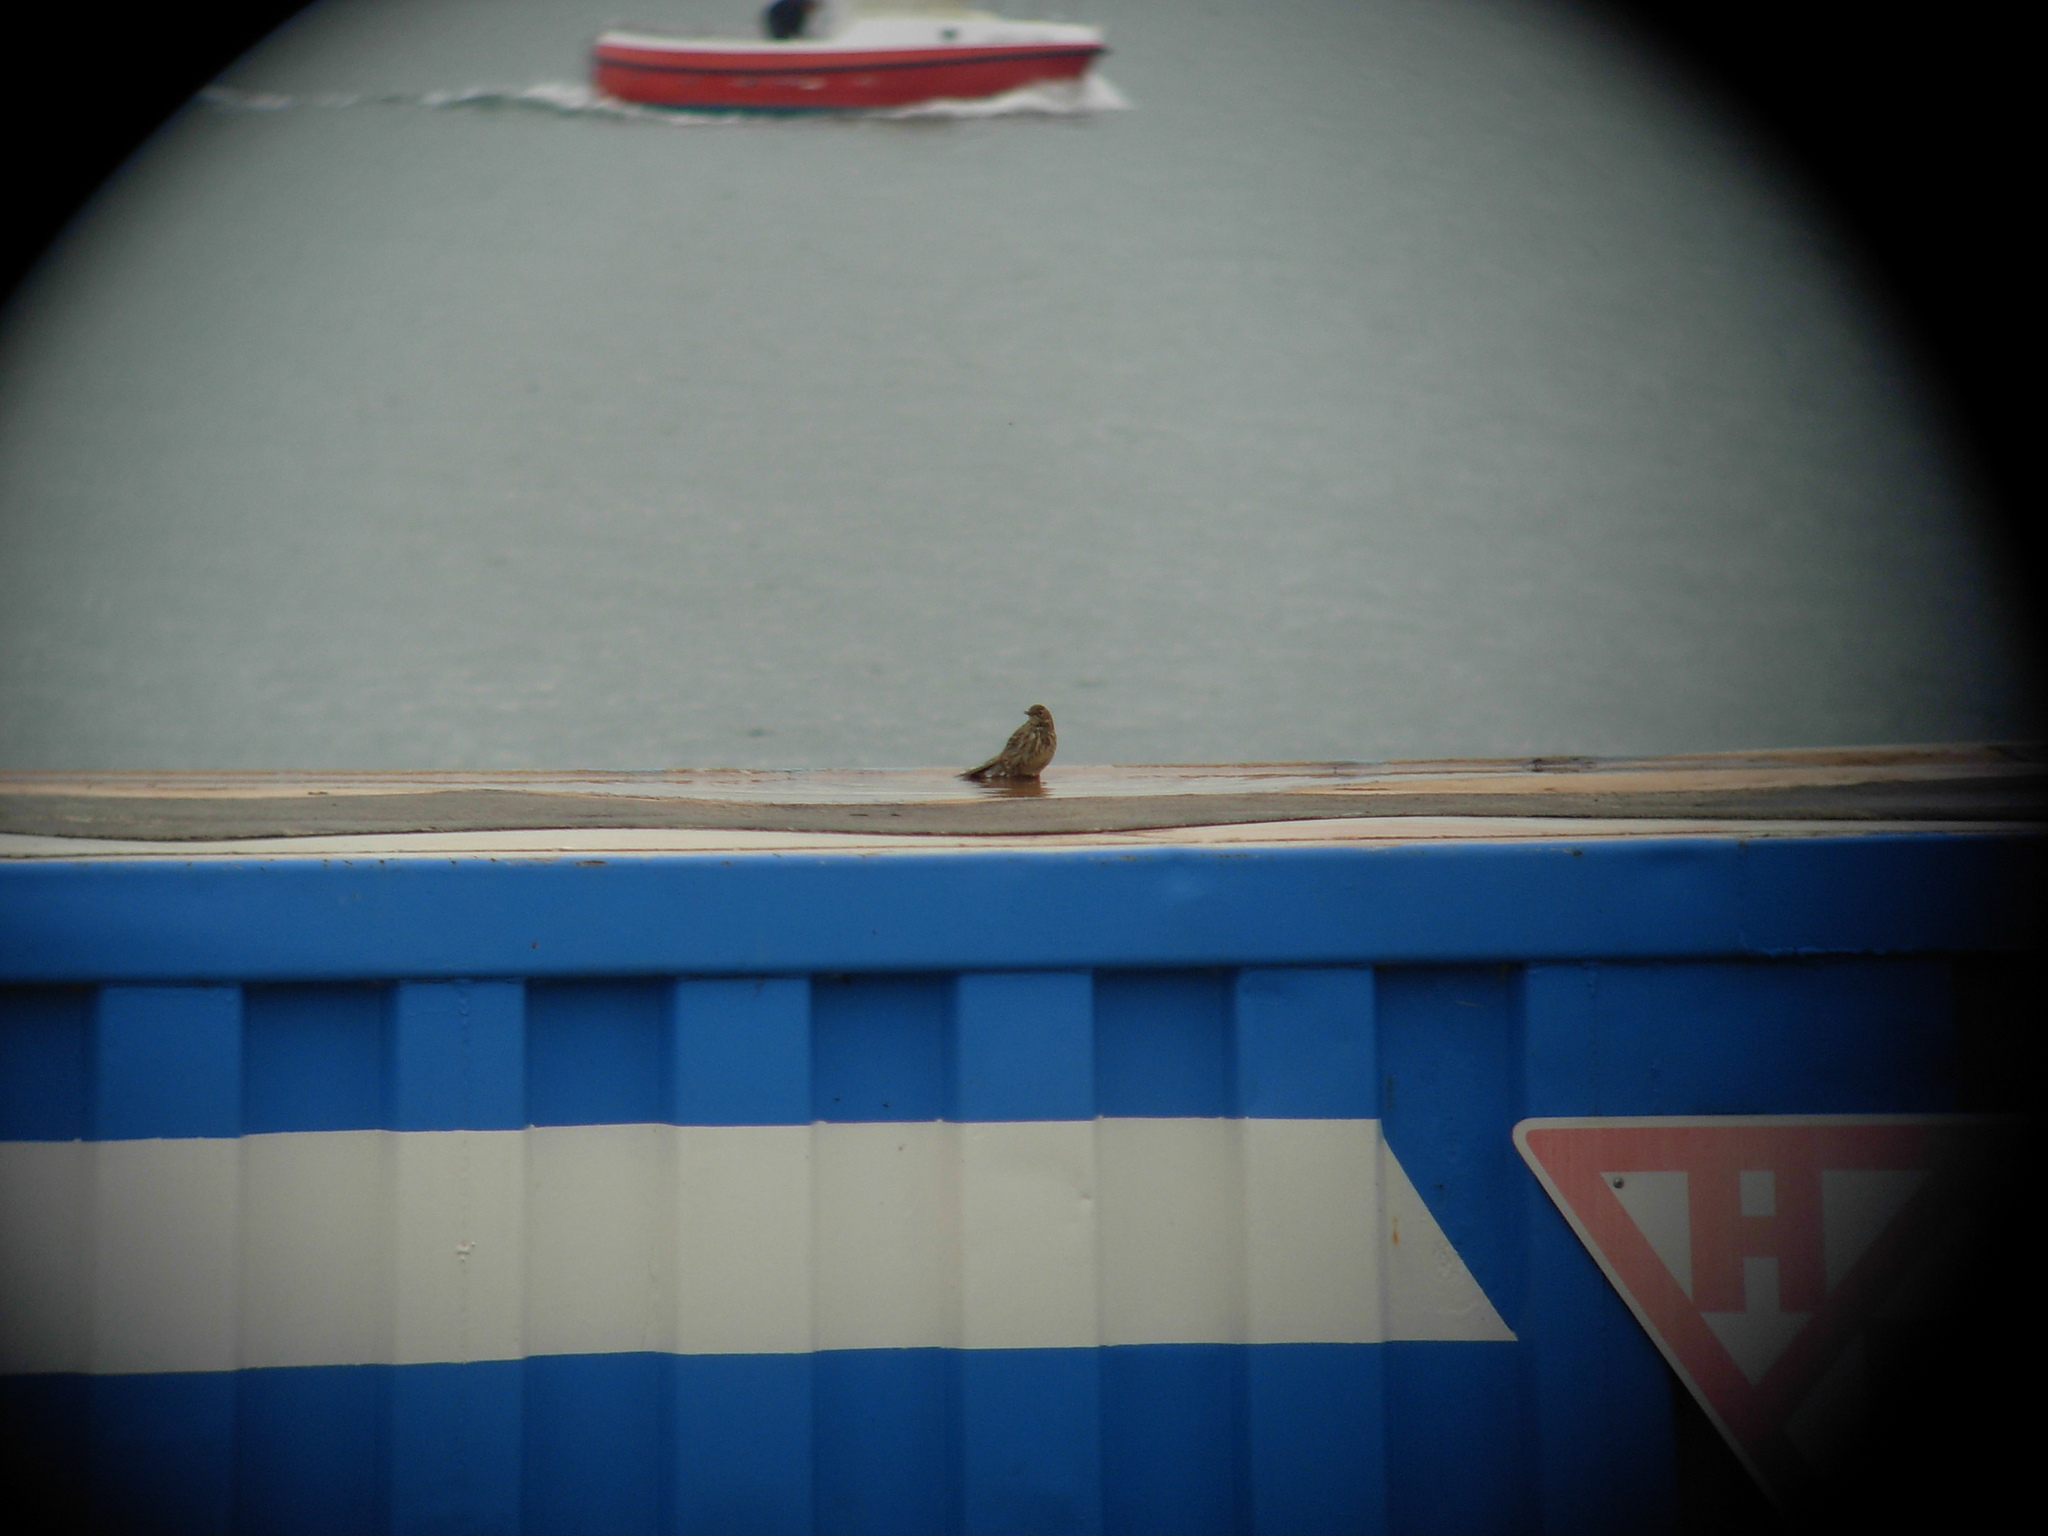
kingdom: Animalia
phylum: Chordata
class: Aves
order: Passeriformes
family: Motacillidae
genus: Anthus
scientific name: Anthus petrosus
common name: Eurasian rock pipit
